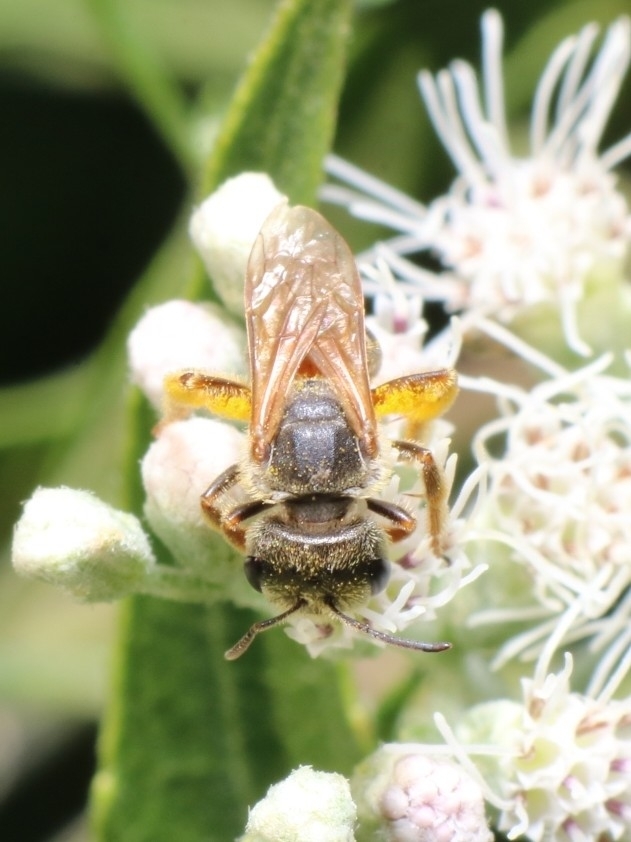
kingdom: Animalia
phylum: Arthropoda
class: Insecta
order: Hymenoptera
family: Halictidae
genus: Halictus
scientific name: Halictus ligatus
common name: Ligated furrow bee
